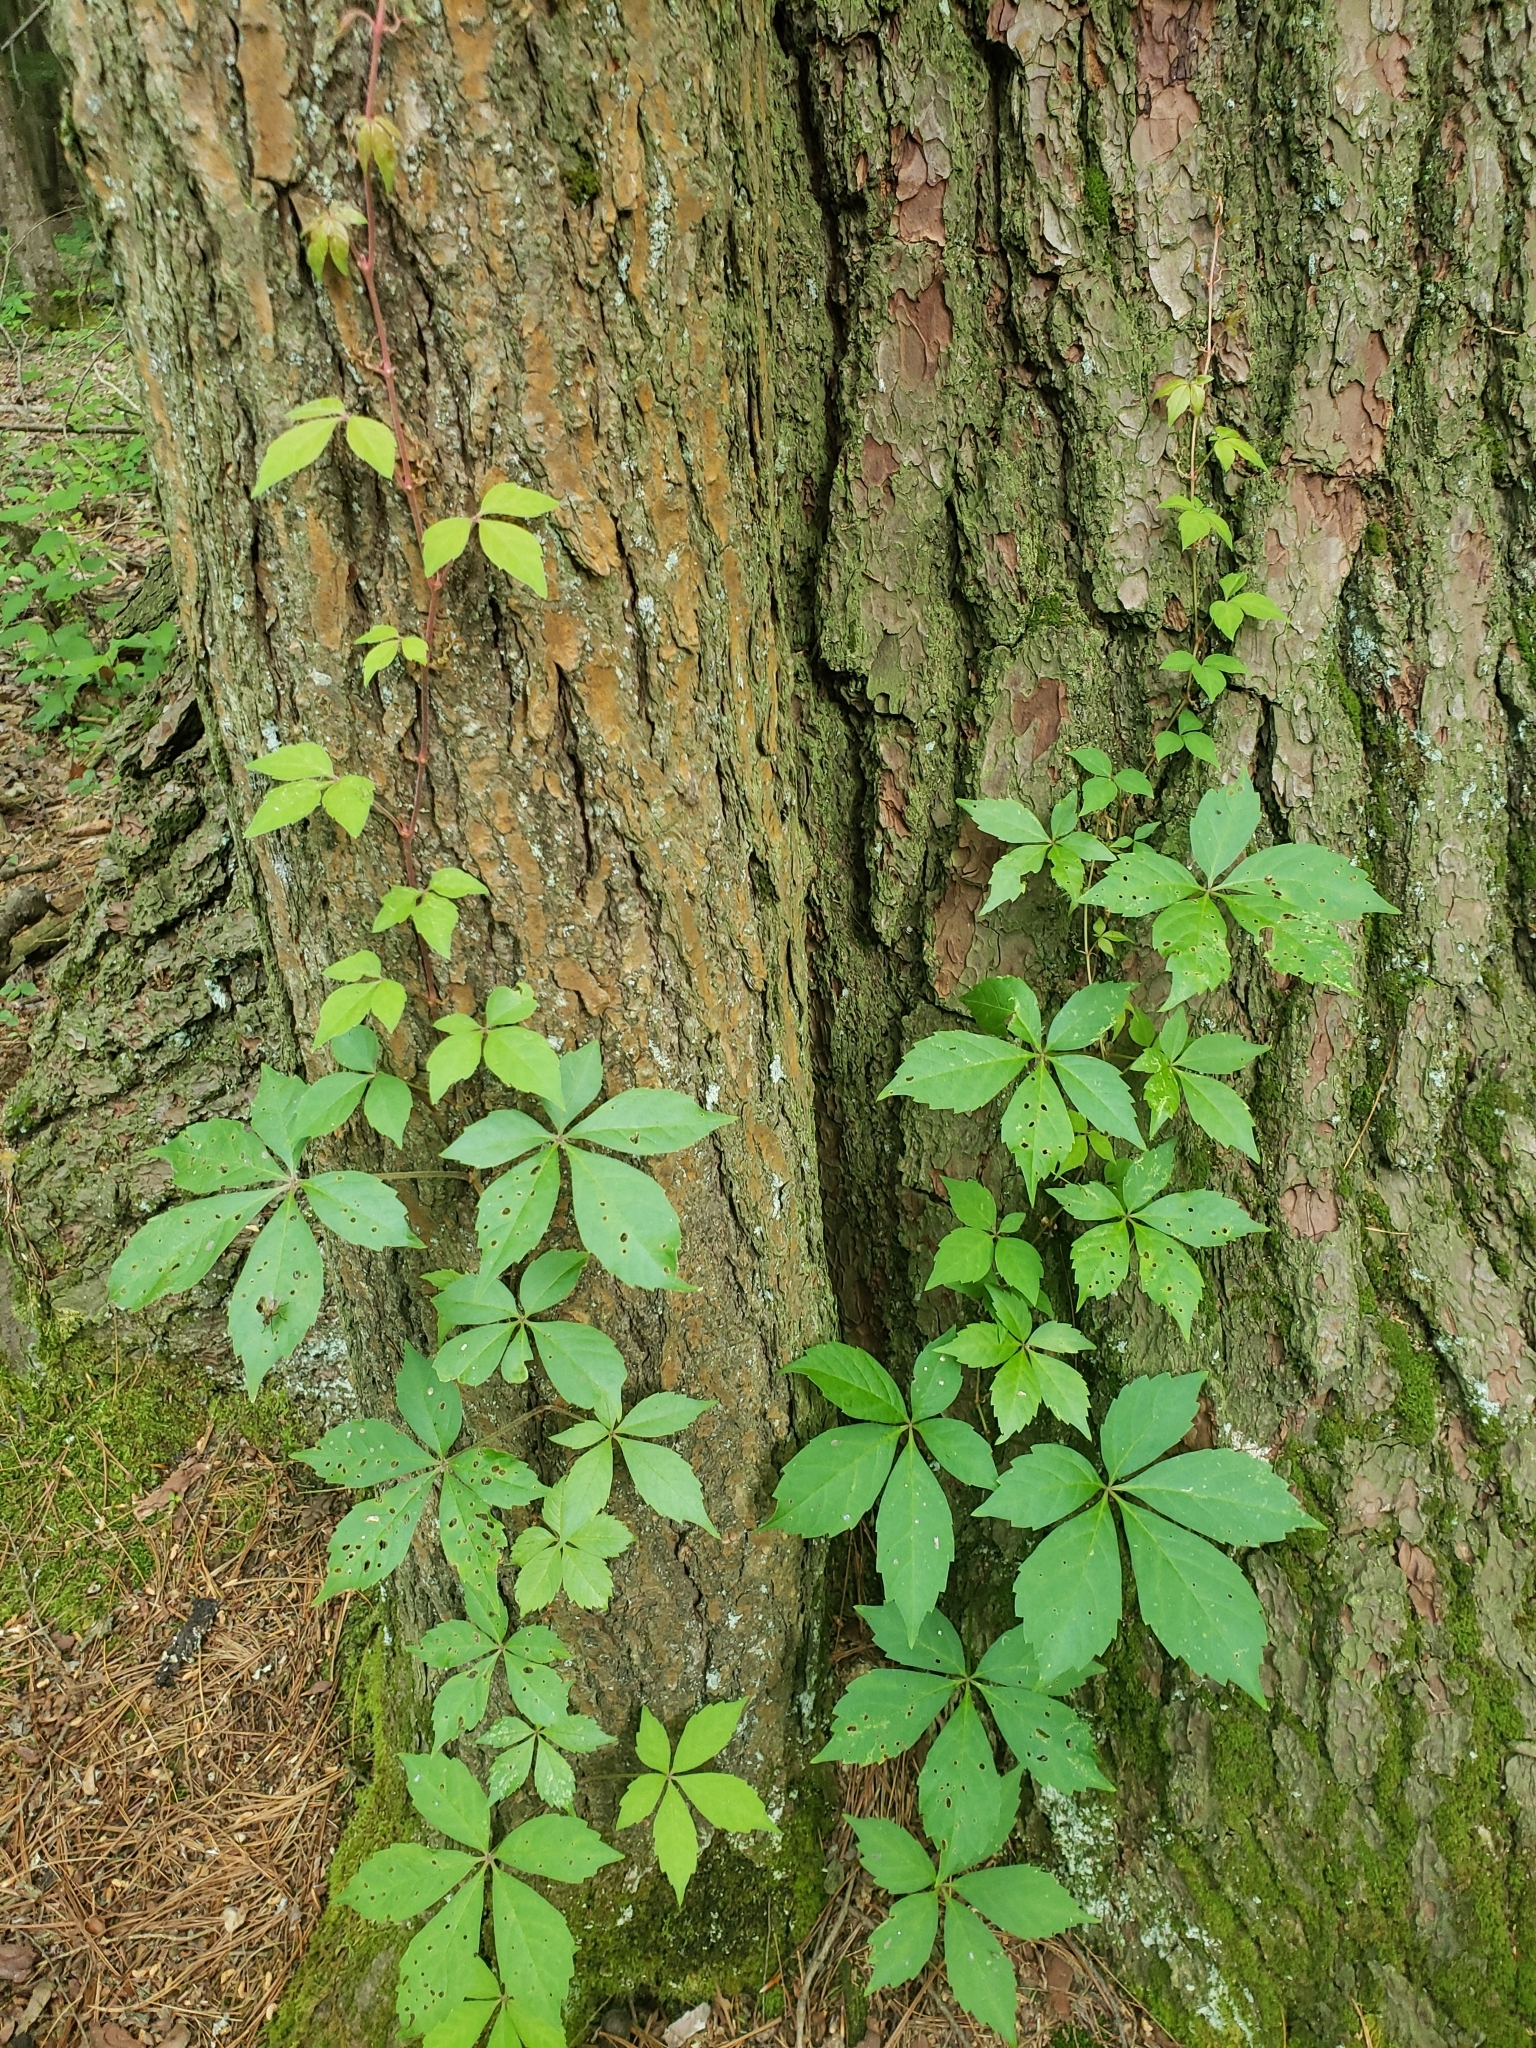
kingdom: Plantae
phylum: Tracheophyta
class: Magnoliopsida
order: Vitales
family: Vitaceae
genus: Parthenocissus
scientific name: Parthenocissus quinquefolia
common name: Virginia-creeper
